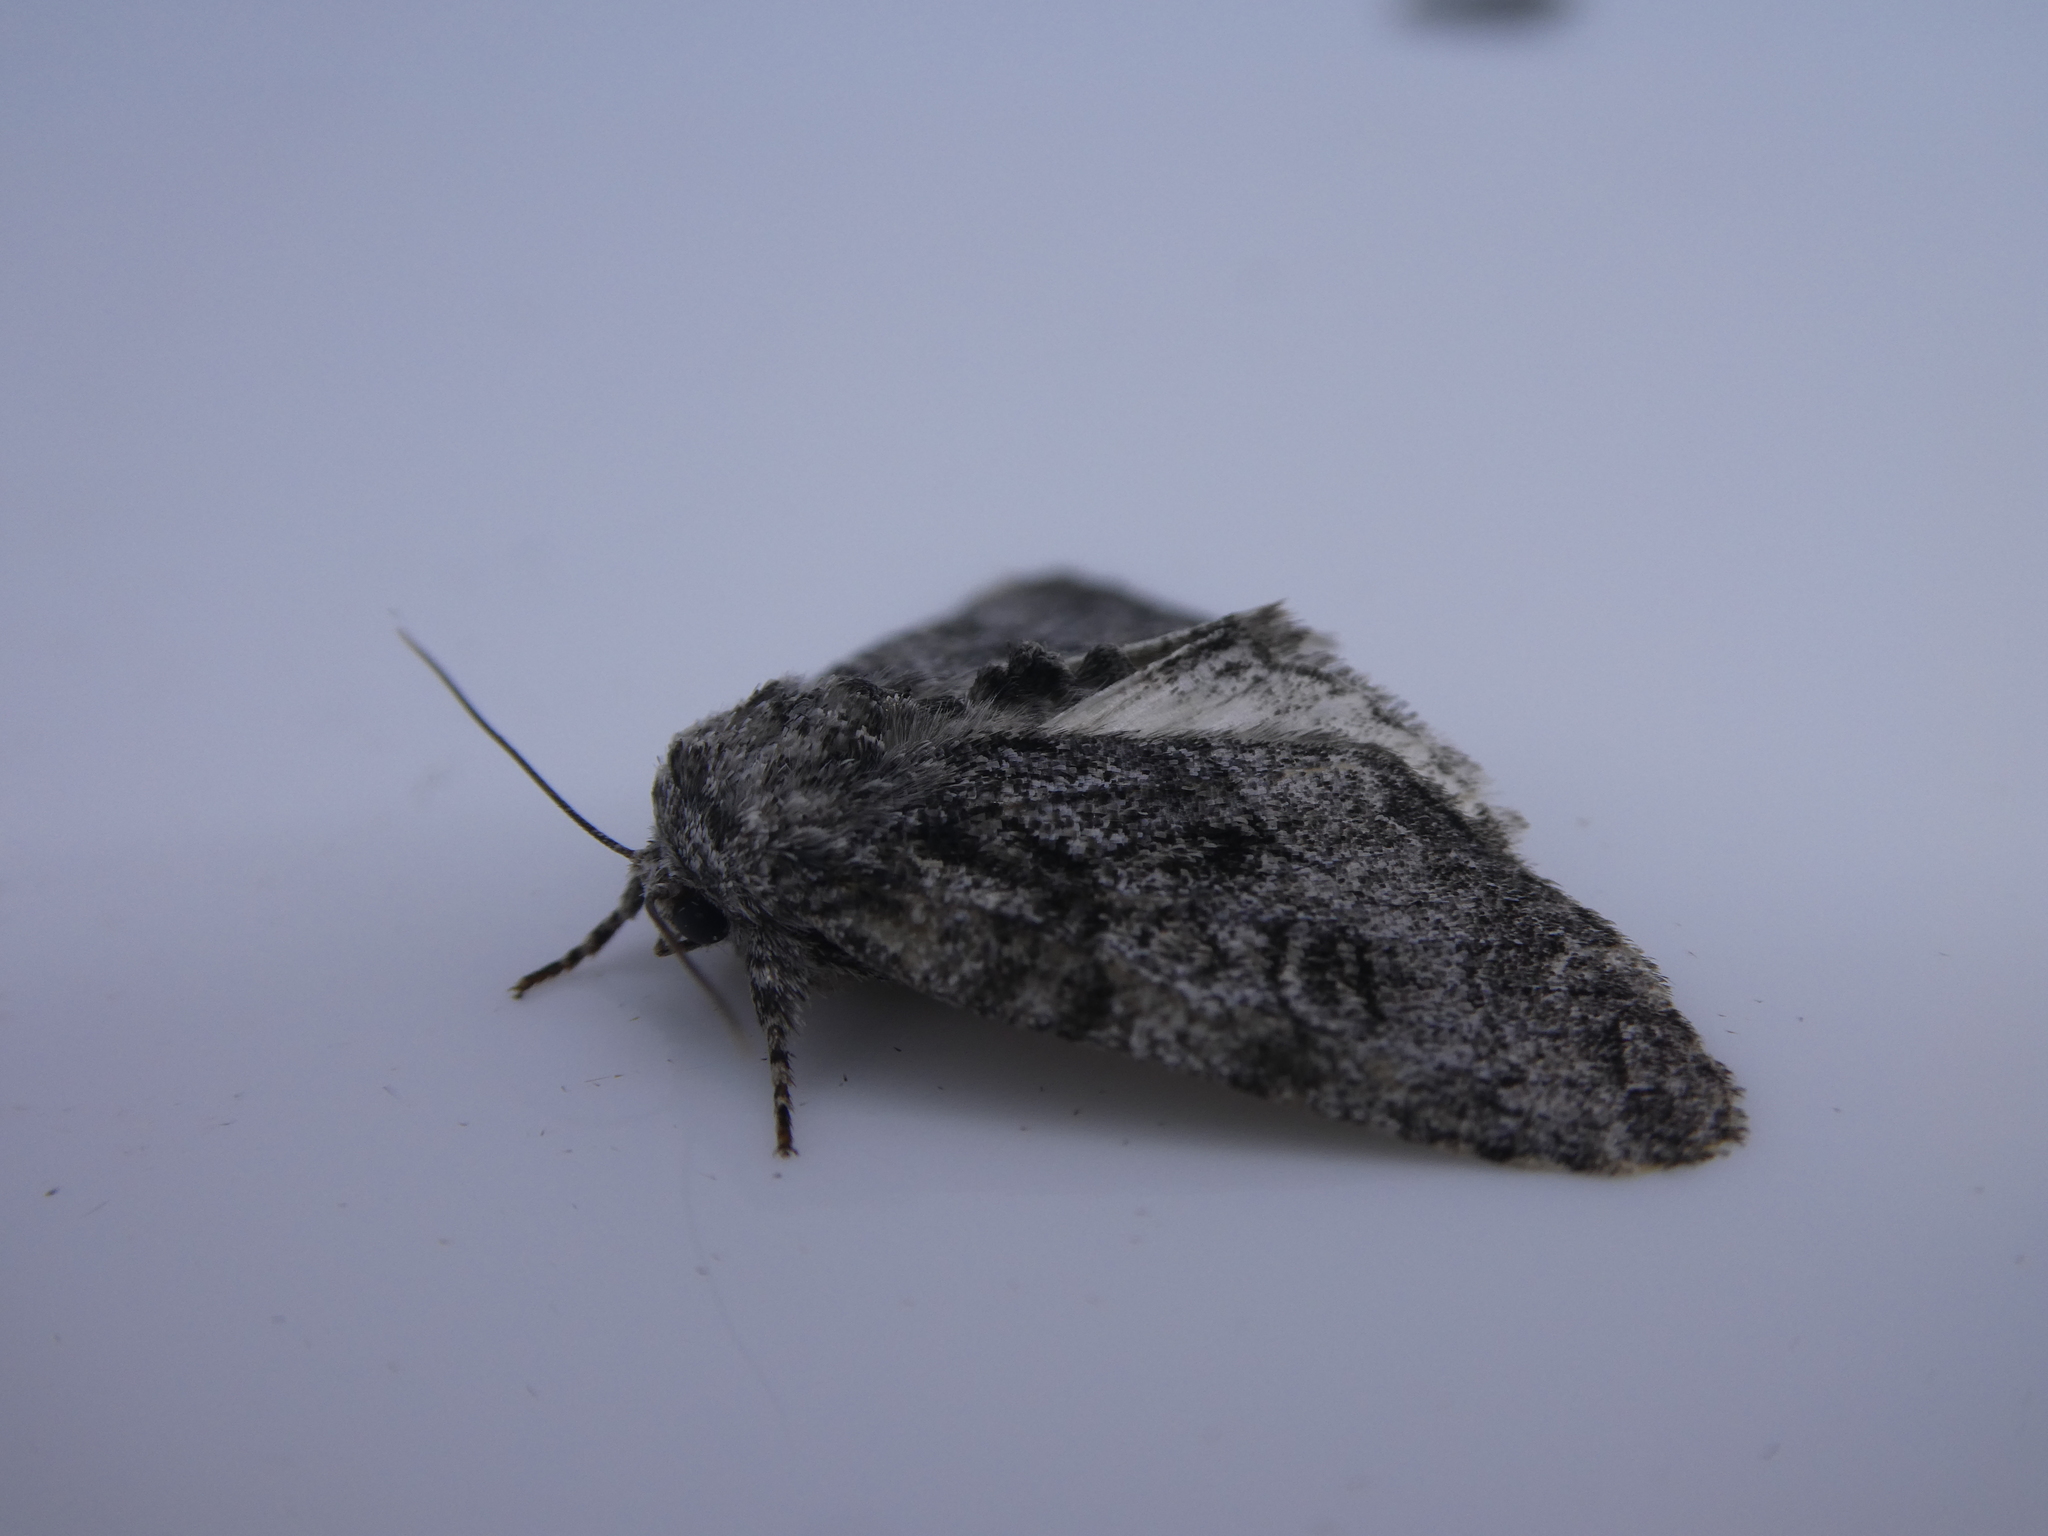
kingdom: Animalia
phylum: Arthropoda
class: Insecta
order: Lepidoptera
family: Noctuidae
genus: Raphia
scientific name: Raphia frater
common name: Brother
